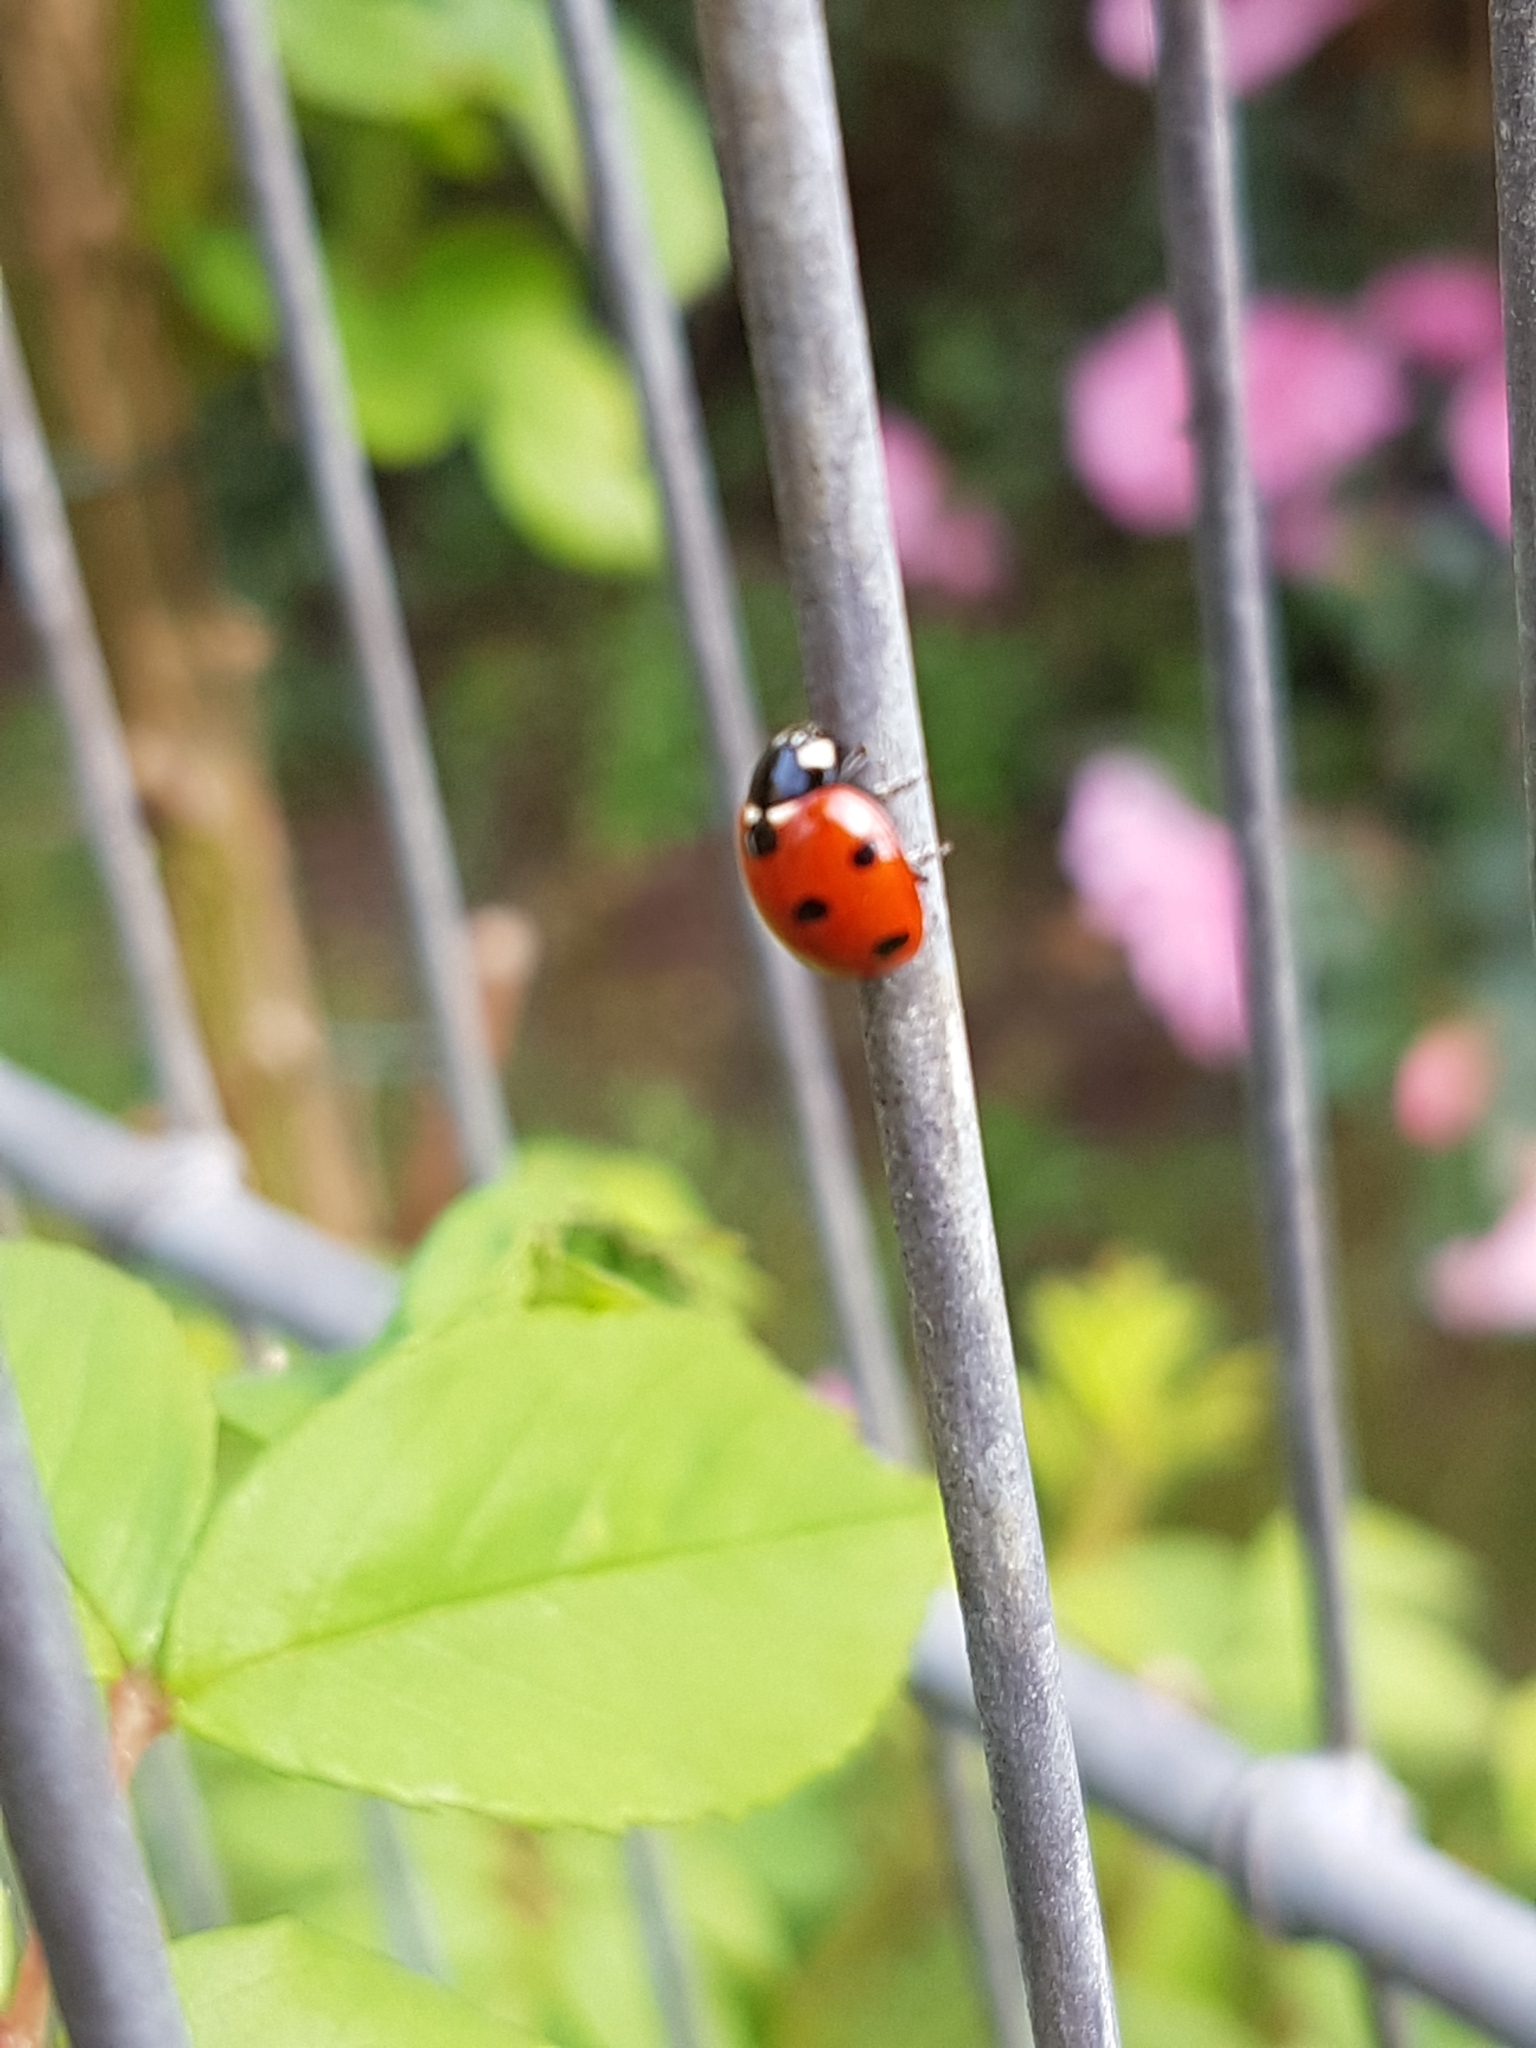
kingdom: Animalia
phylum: Arthropoda
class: Insecta
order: Coleoptera
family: Coccinellidae
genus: Coccinella
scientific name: Coccinella septempunctata
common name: Sevenspotted lady beetle
